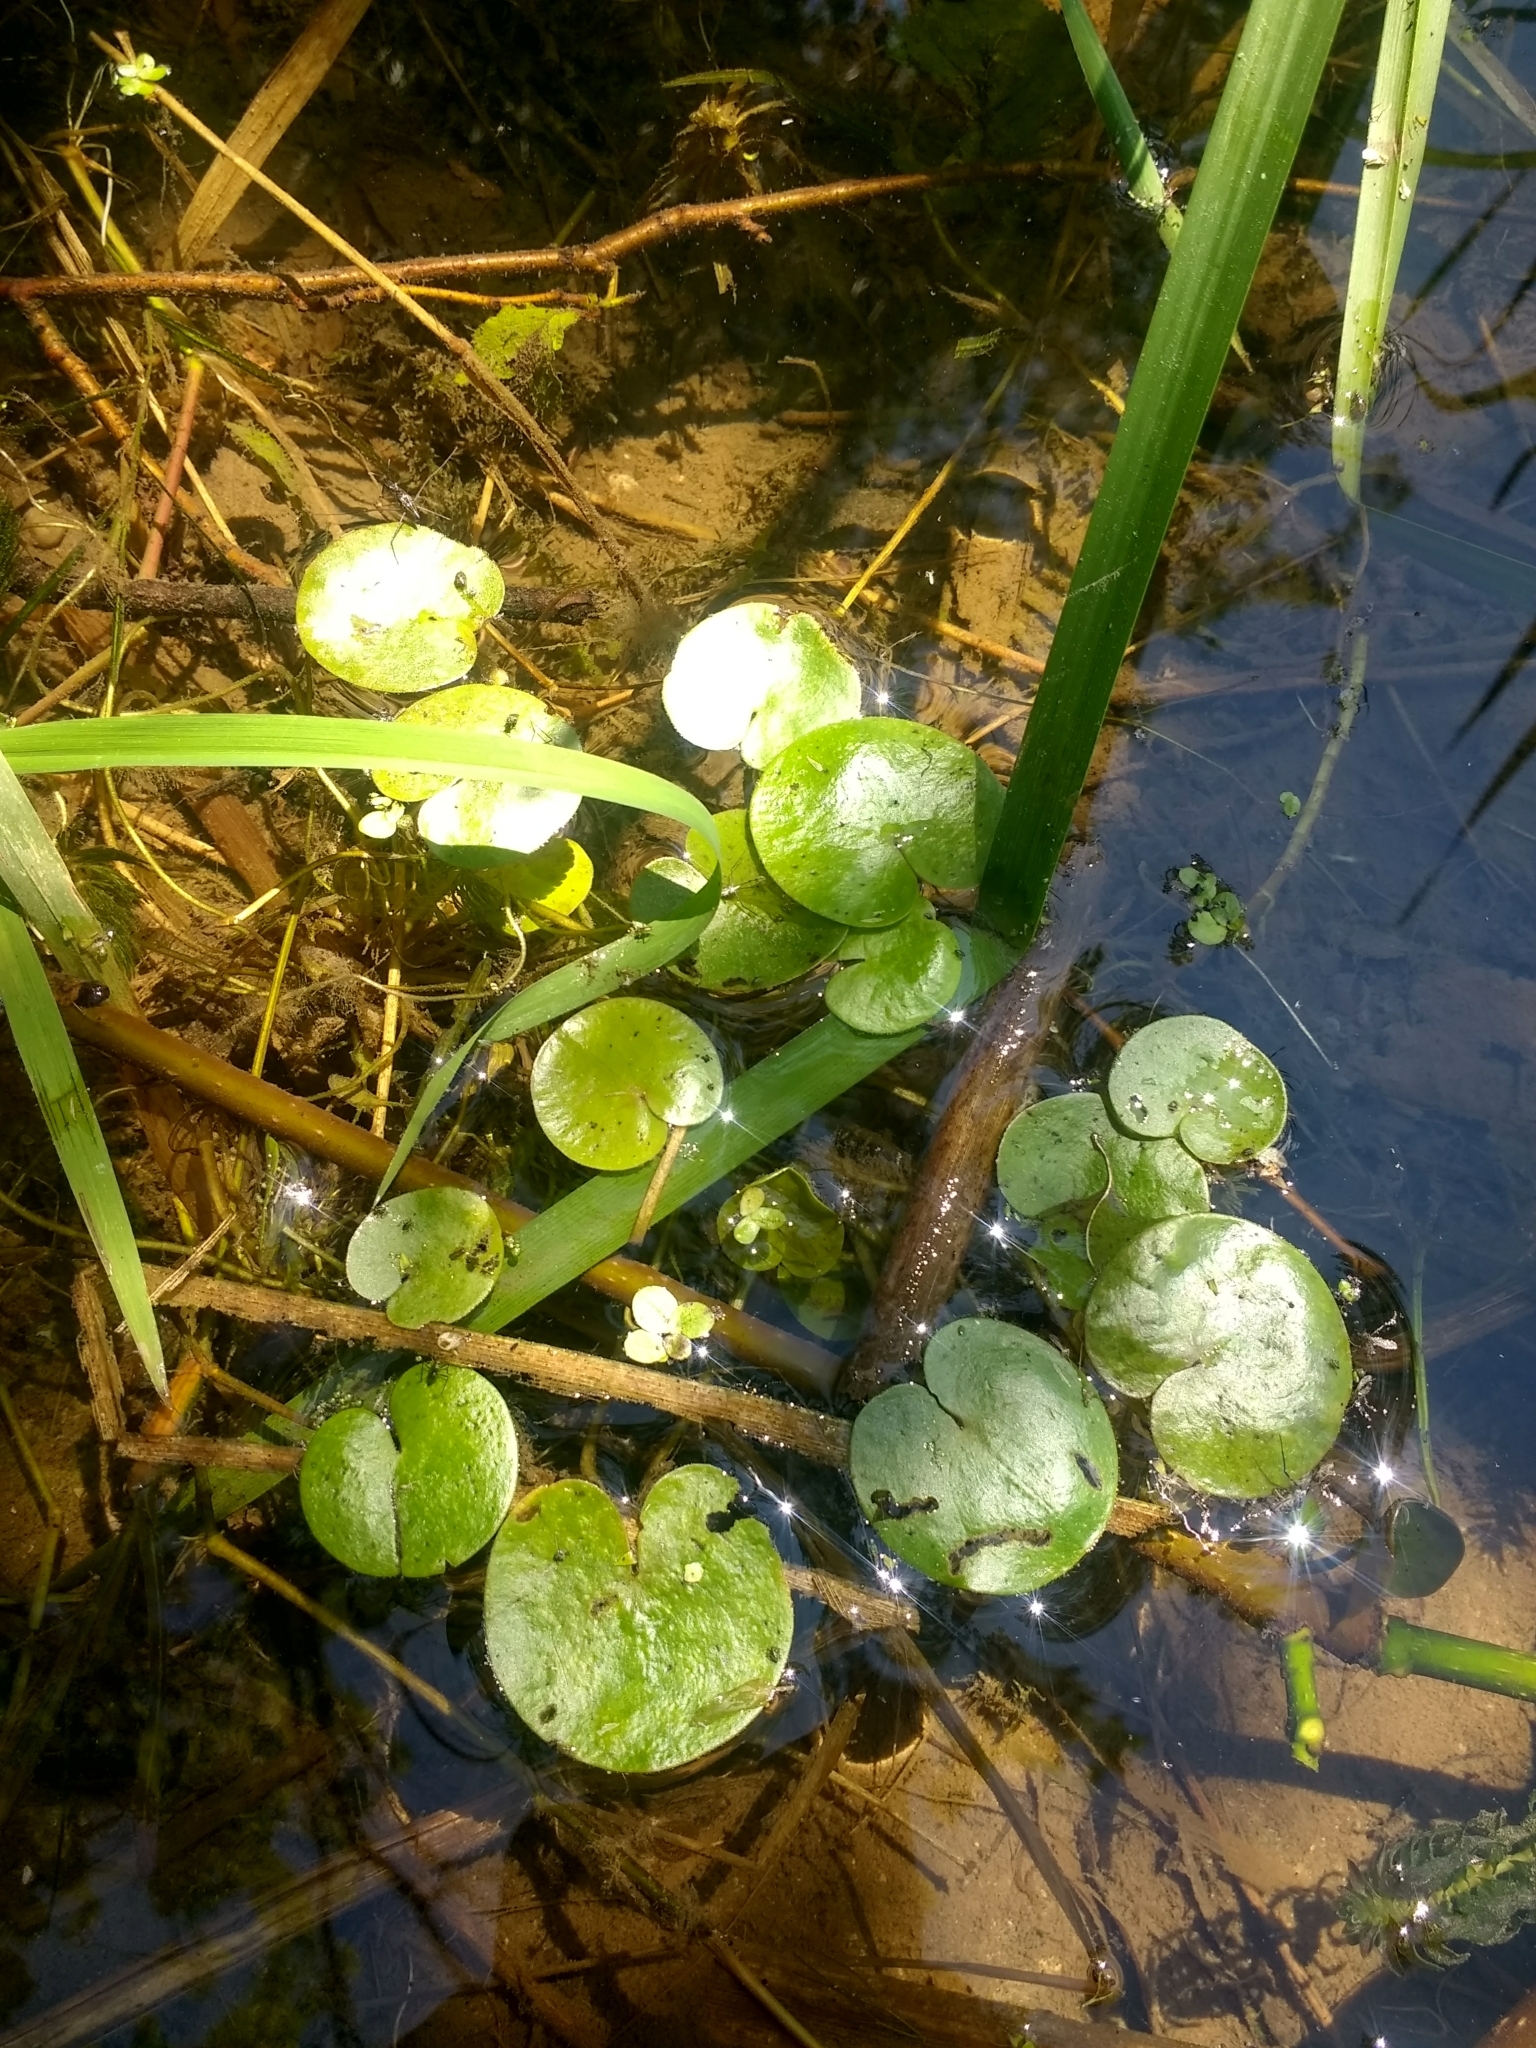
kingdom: Plantae
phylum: Tracheophyta
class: Liliopsida
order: Alismatales
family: Hydrocharitaceae
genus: Hydrocharis
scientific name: Hydrocharis morsus-ranae
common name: Frogbit
